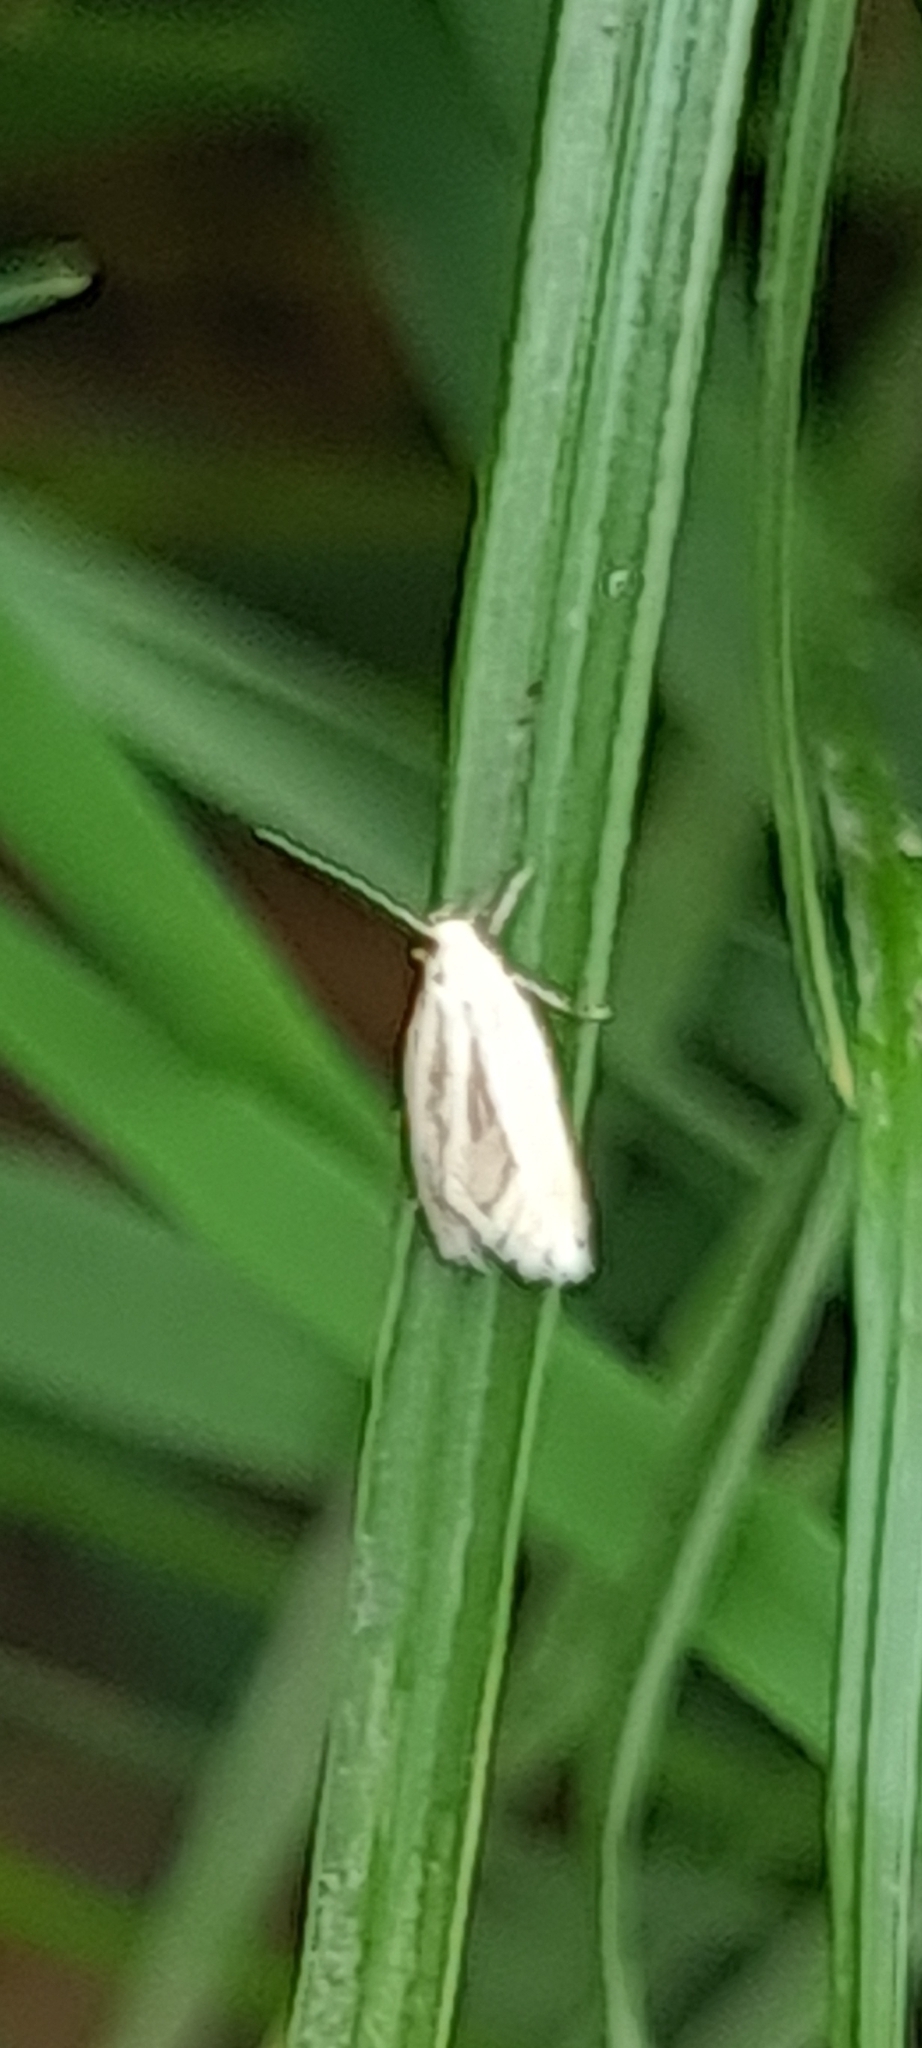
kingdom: Animalia
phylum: Arthropoda
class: Insecta
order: Lepidoptera
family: Elachistidae
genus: Elachista
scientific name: Elachista argentella
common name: Swan-feather dwarf
